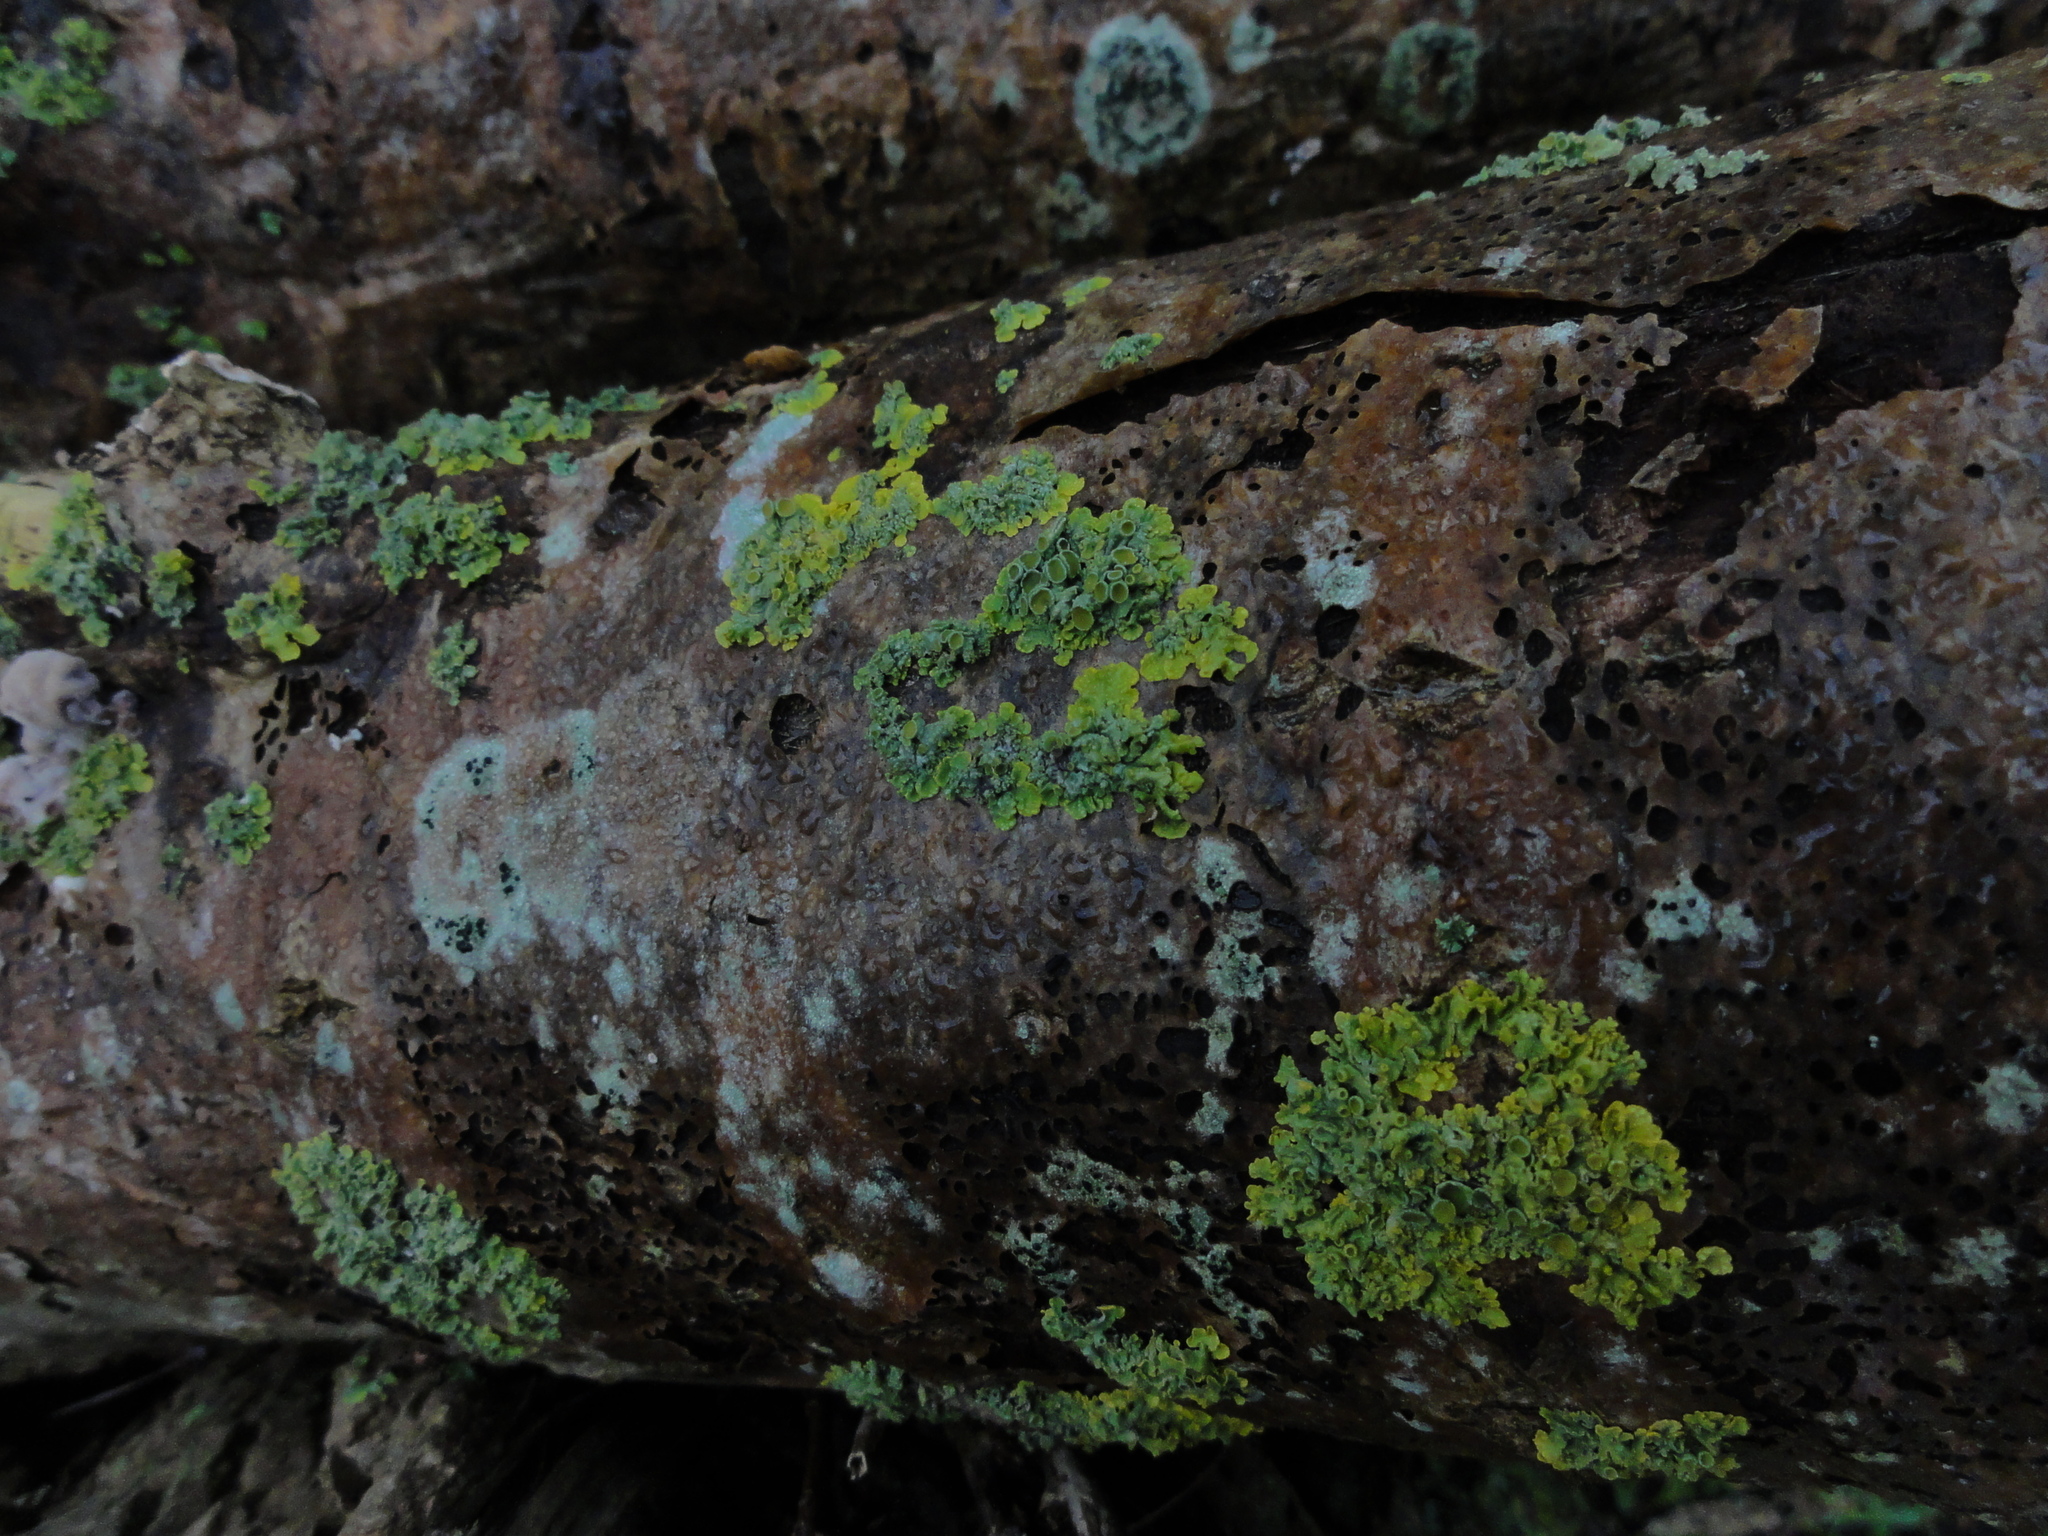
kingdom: Fungi
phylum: Ascomycota
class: Lecanoromycetes
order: Teloschistales
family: Teloschistaceae
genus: Xanthoria
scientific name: Xanthoria parietina
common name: Common orange lichen
